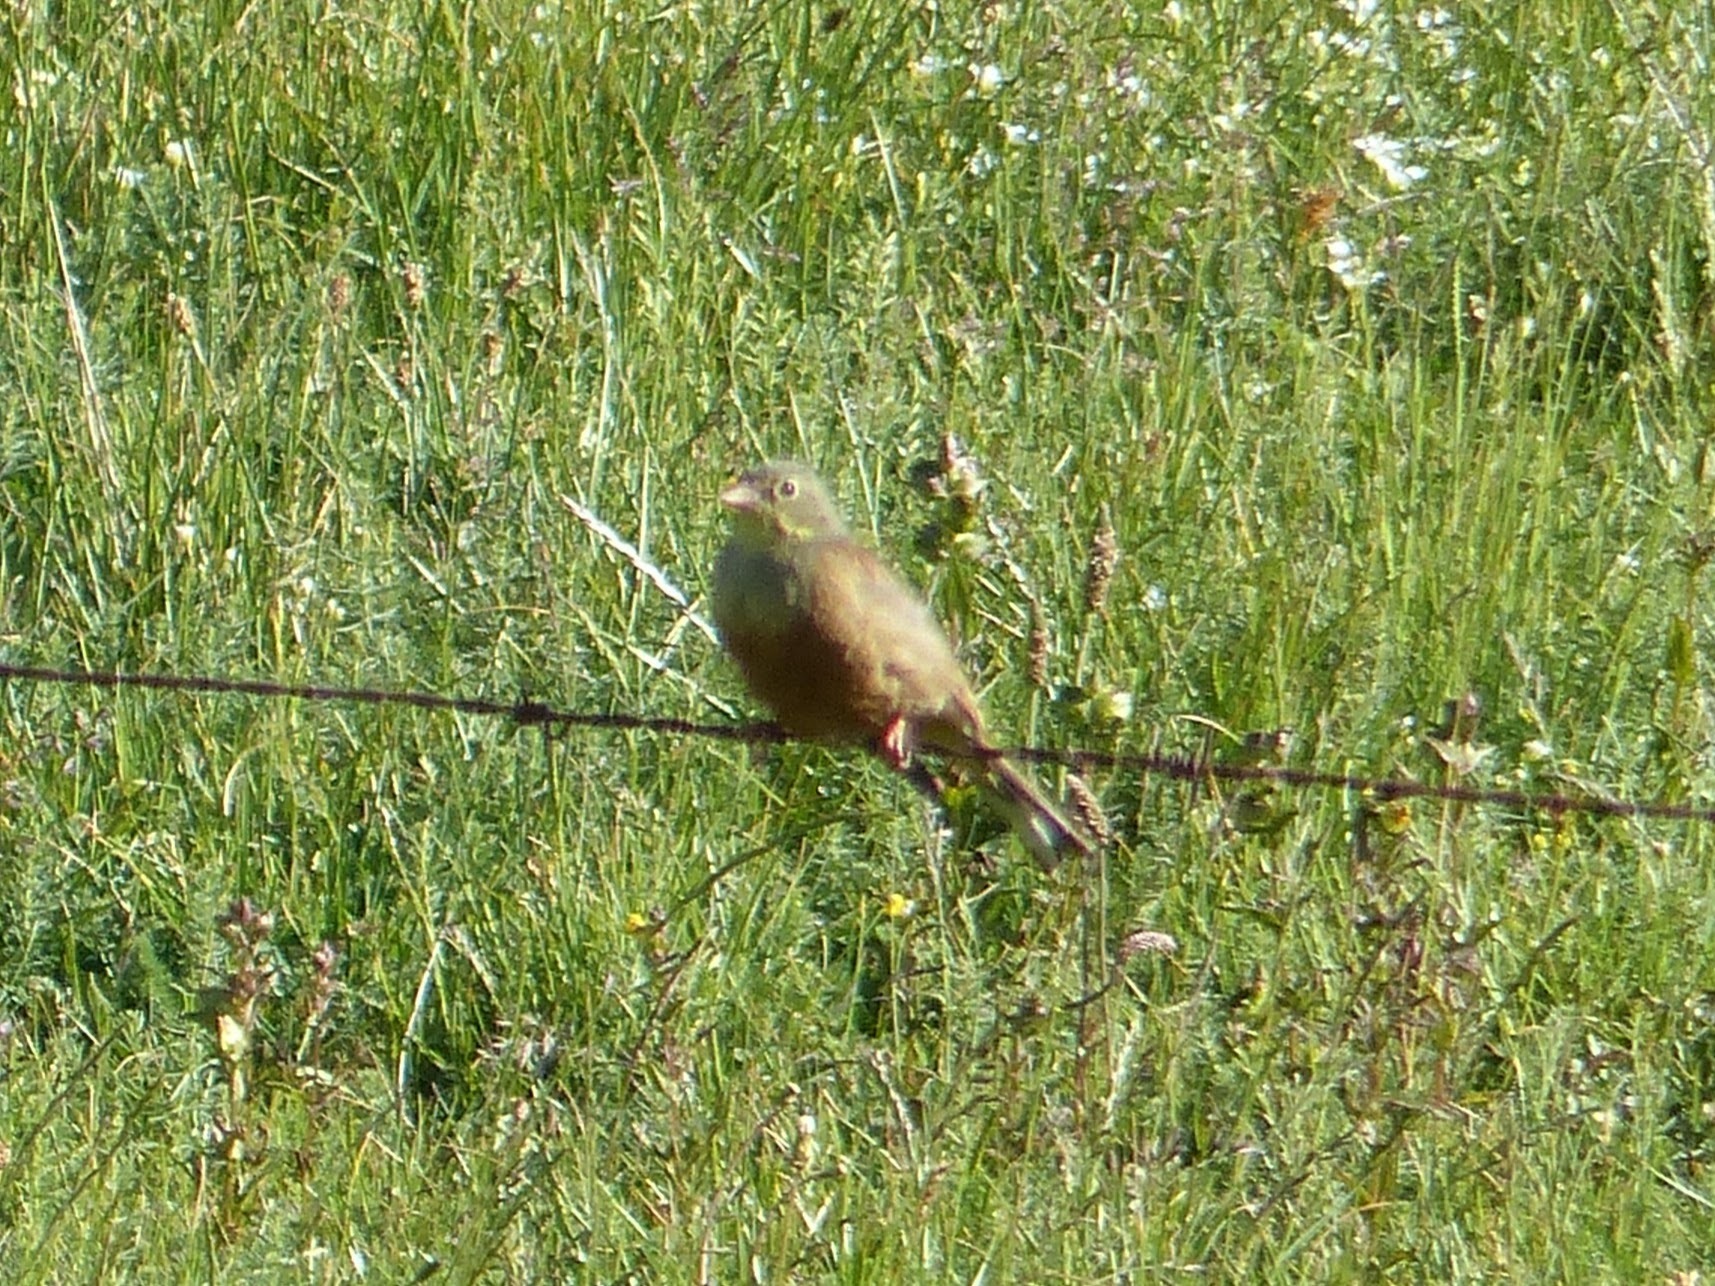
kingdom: Animalia
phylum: Chordata
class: Aves
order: Passeriformes
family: Emberizidae
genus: Emberiza
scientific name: Emberiza hortulana
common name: Ortolan bunting
